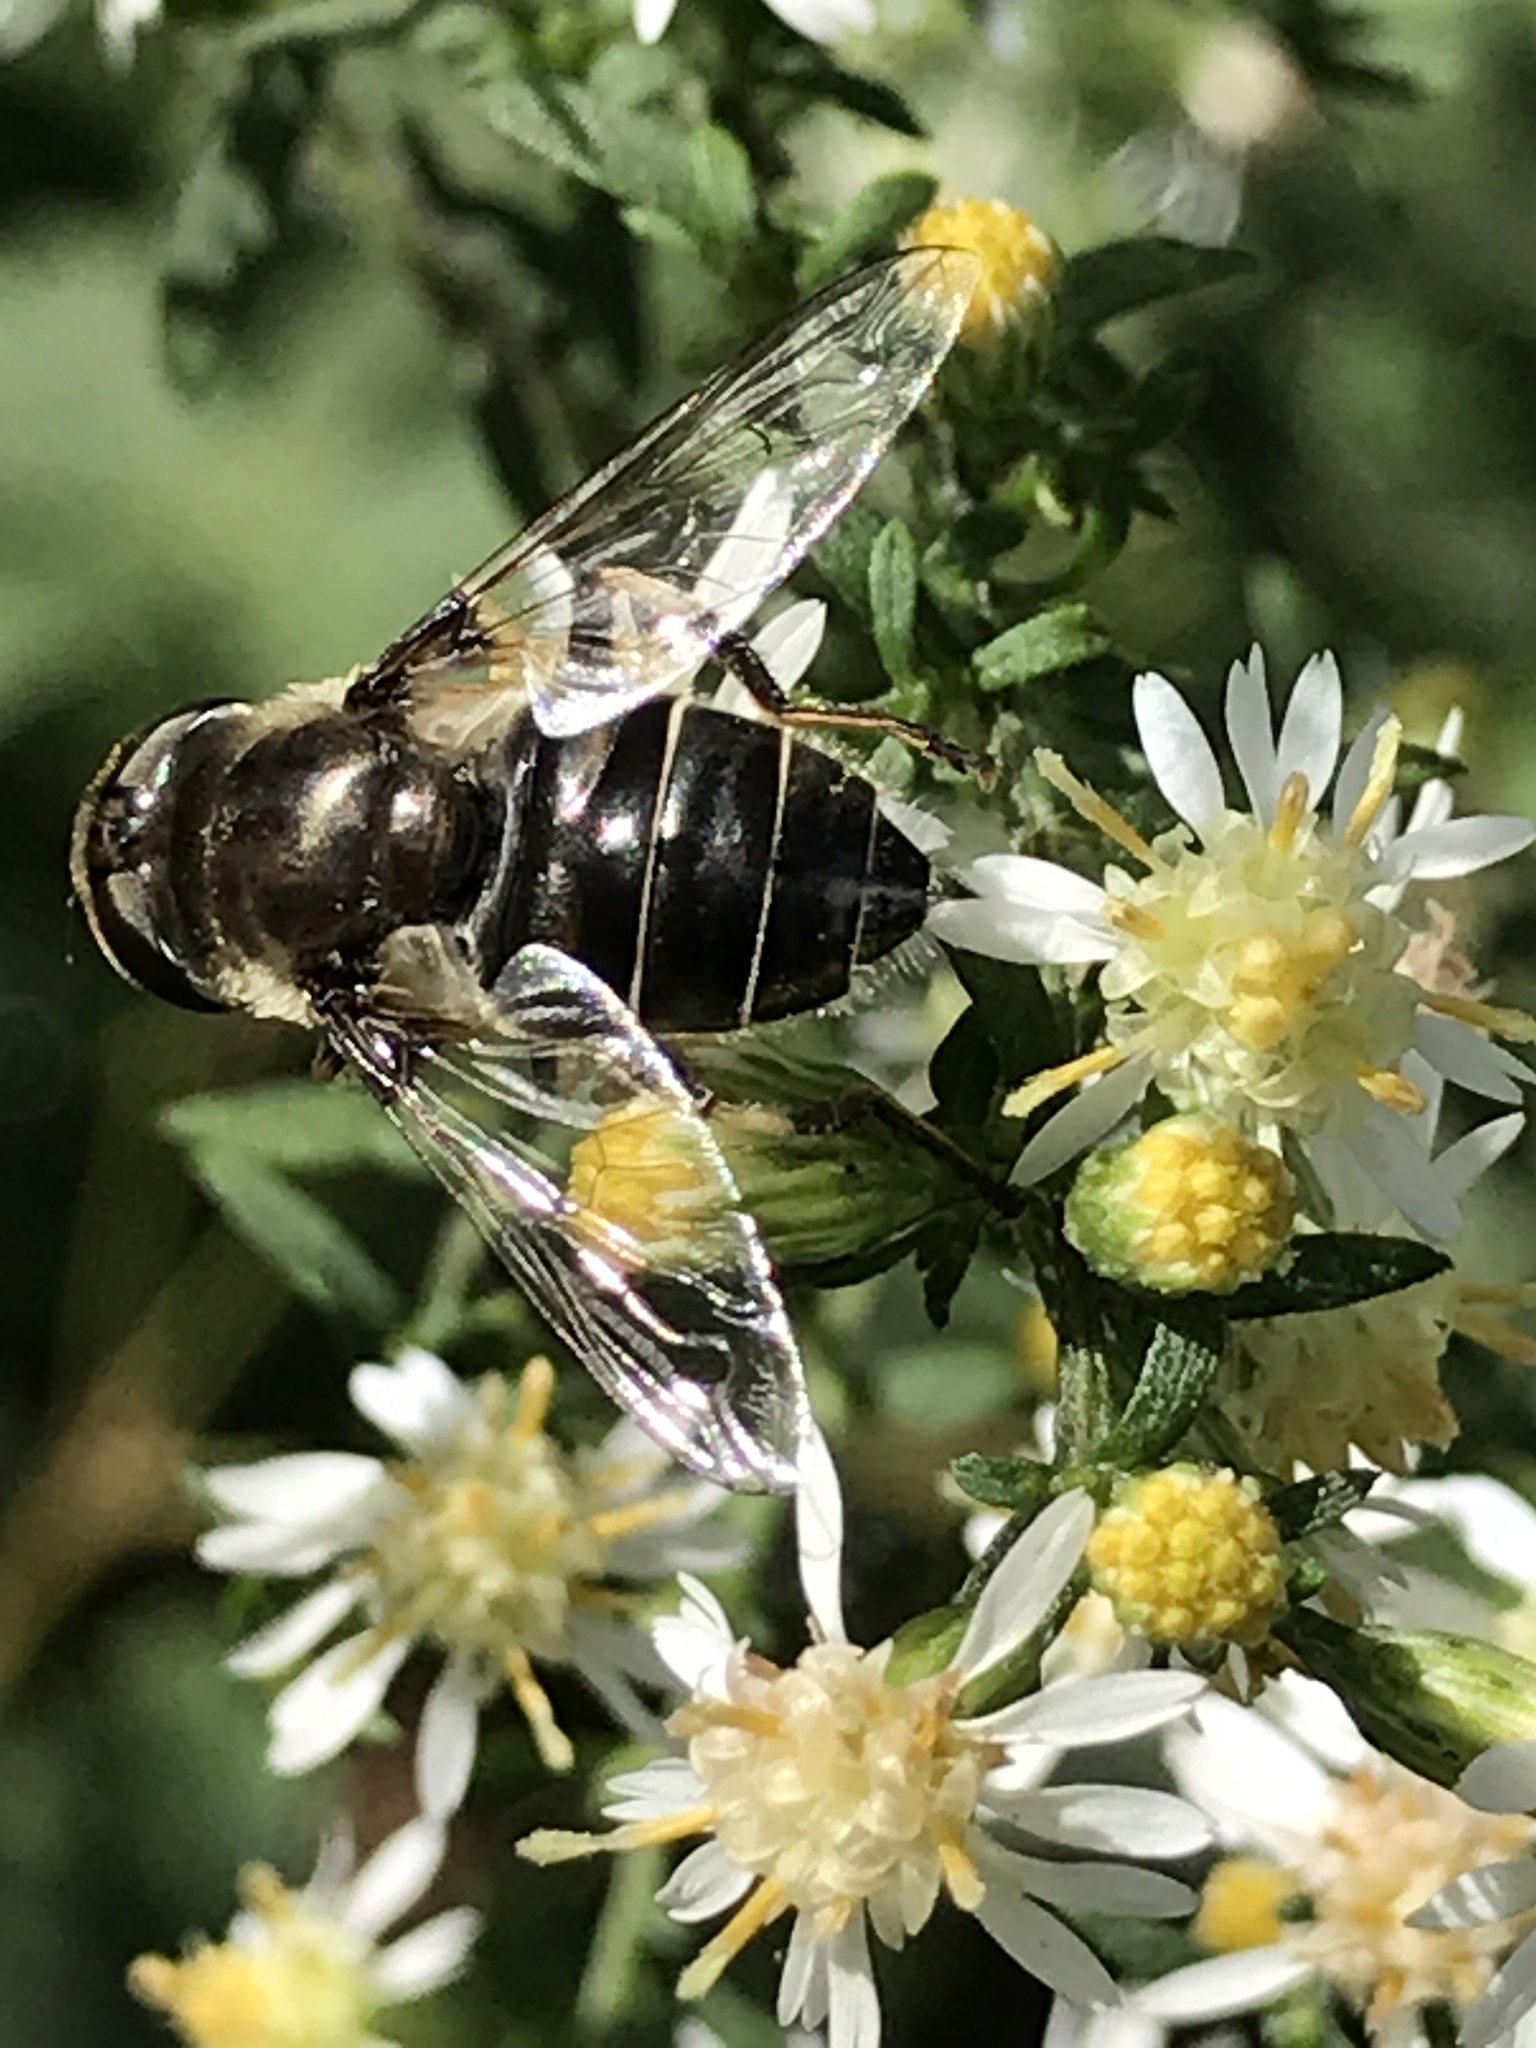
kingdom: Animalia
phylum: Arthropoda
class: Insecta
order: Diptera
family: Syrphidae
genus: Eristalis
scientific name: Eristalis dimidiata
